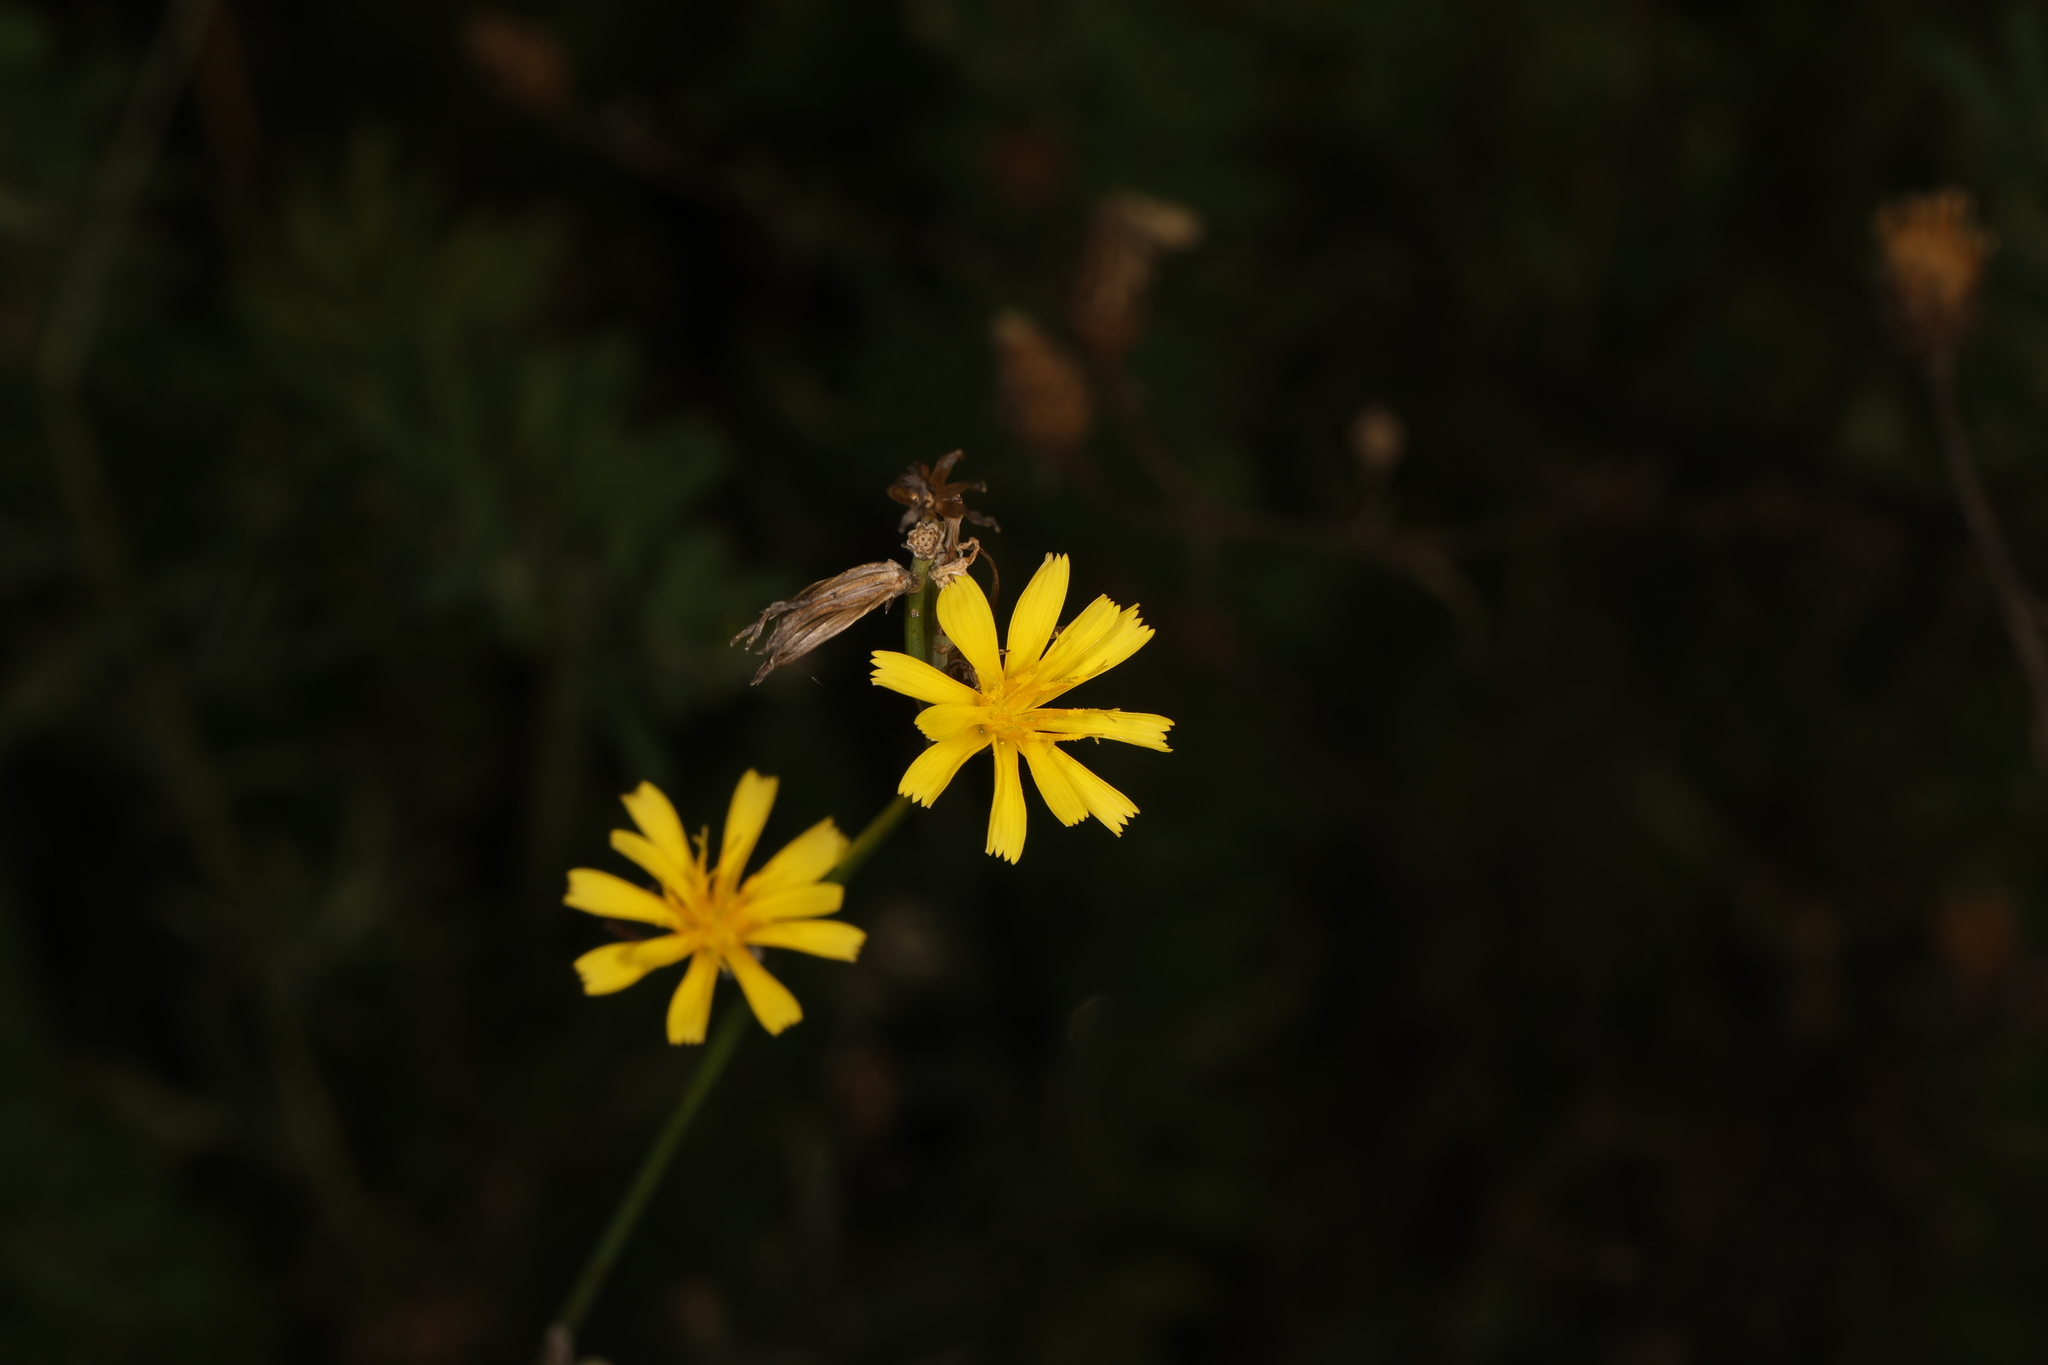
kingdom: Plantae
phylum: Tracheophyta
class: Magnoliopsida
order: Asterales
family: Asteraceae
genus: Chondrilla
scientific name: Chondrilla juncea
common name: Skeleton weed
